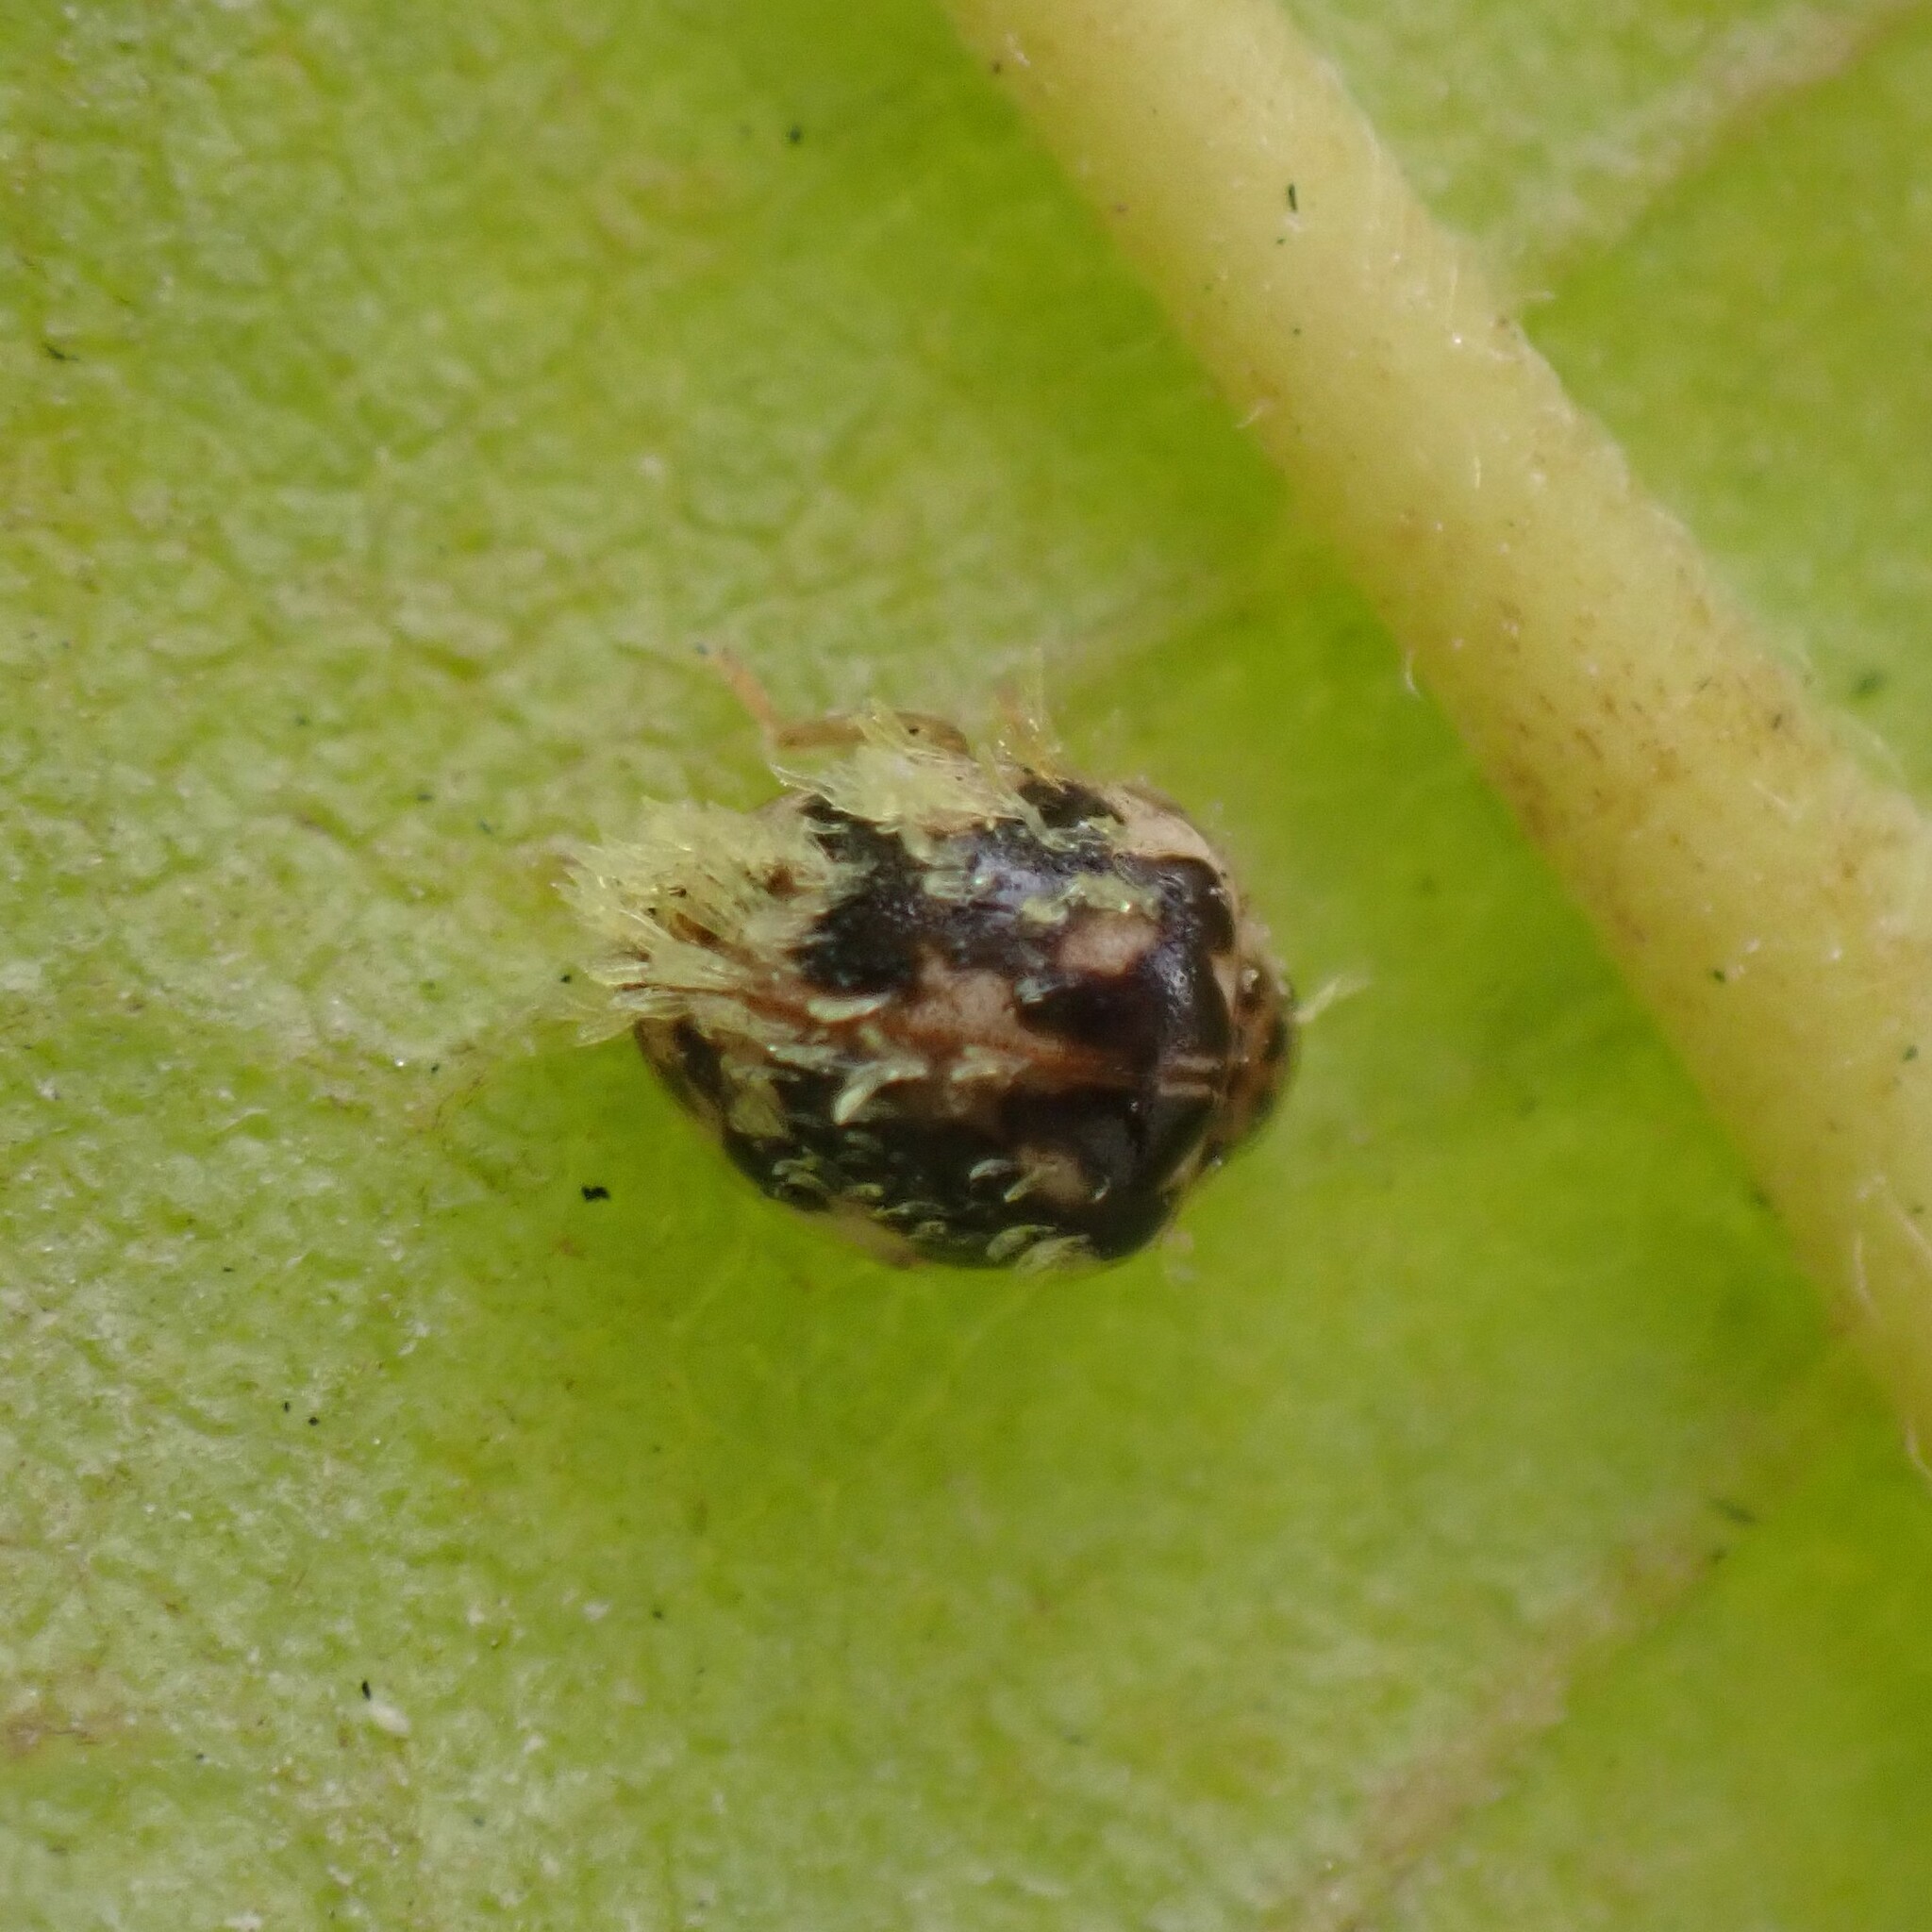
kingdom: Animalia
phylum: Arthropoda
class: Insecta
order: Coleoptera
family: Coccinellidae
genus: Psyllobora
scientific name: Psyllobora vigintimaculata
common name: Ladybird beetle
